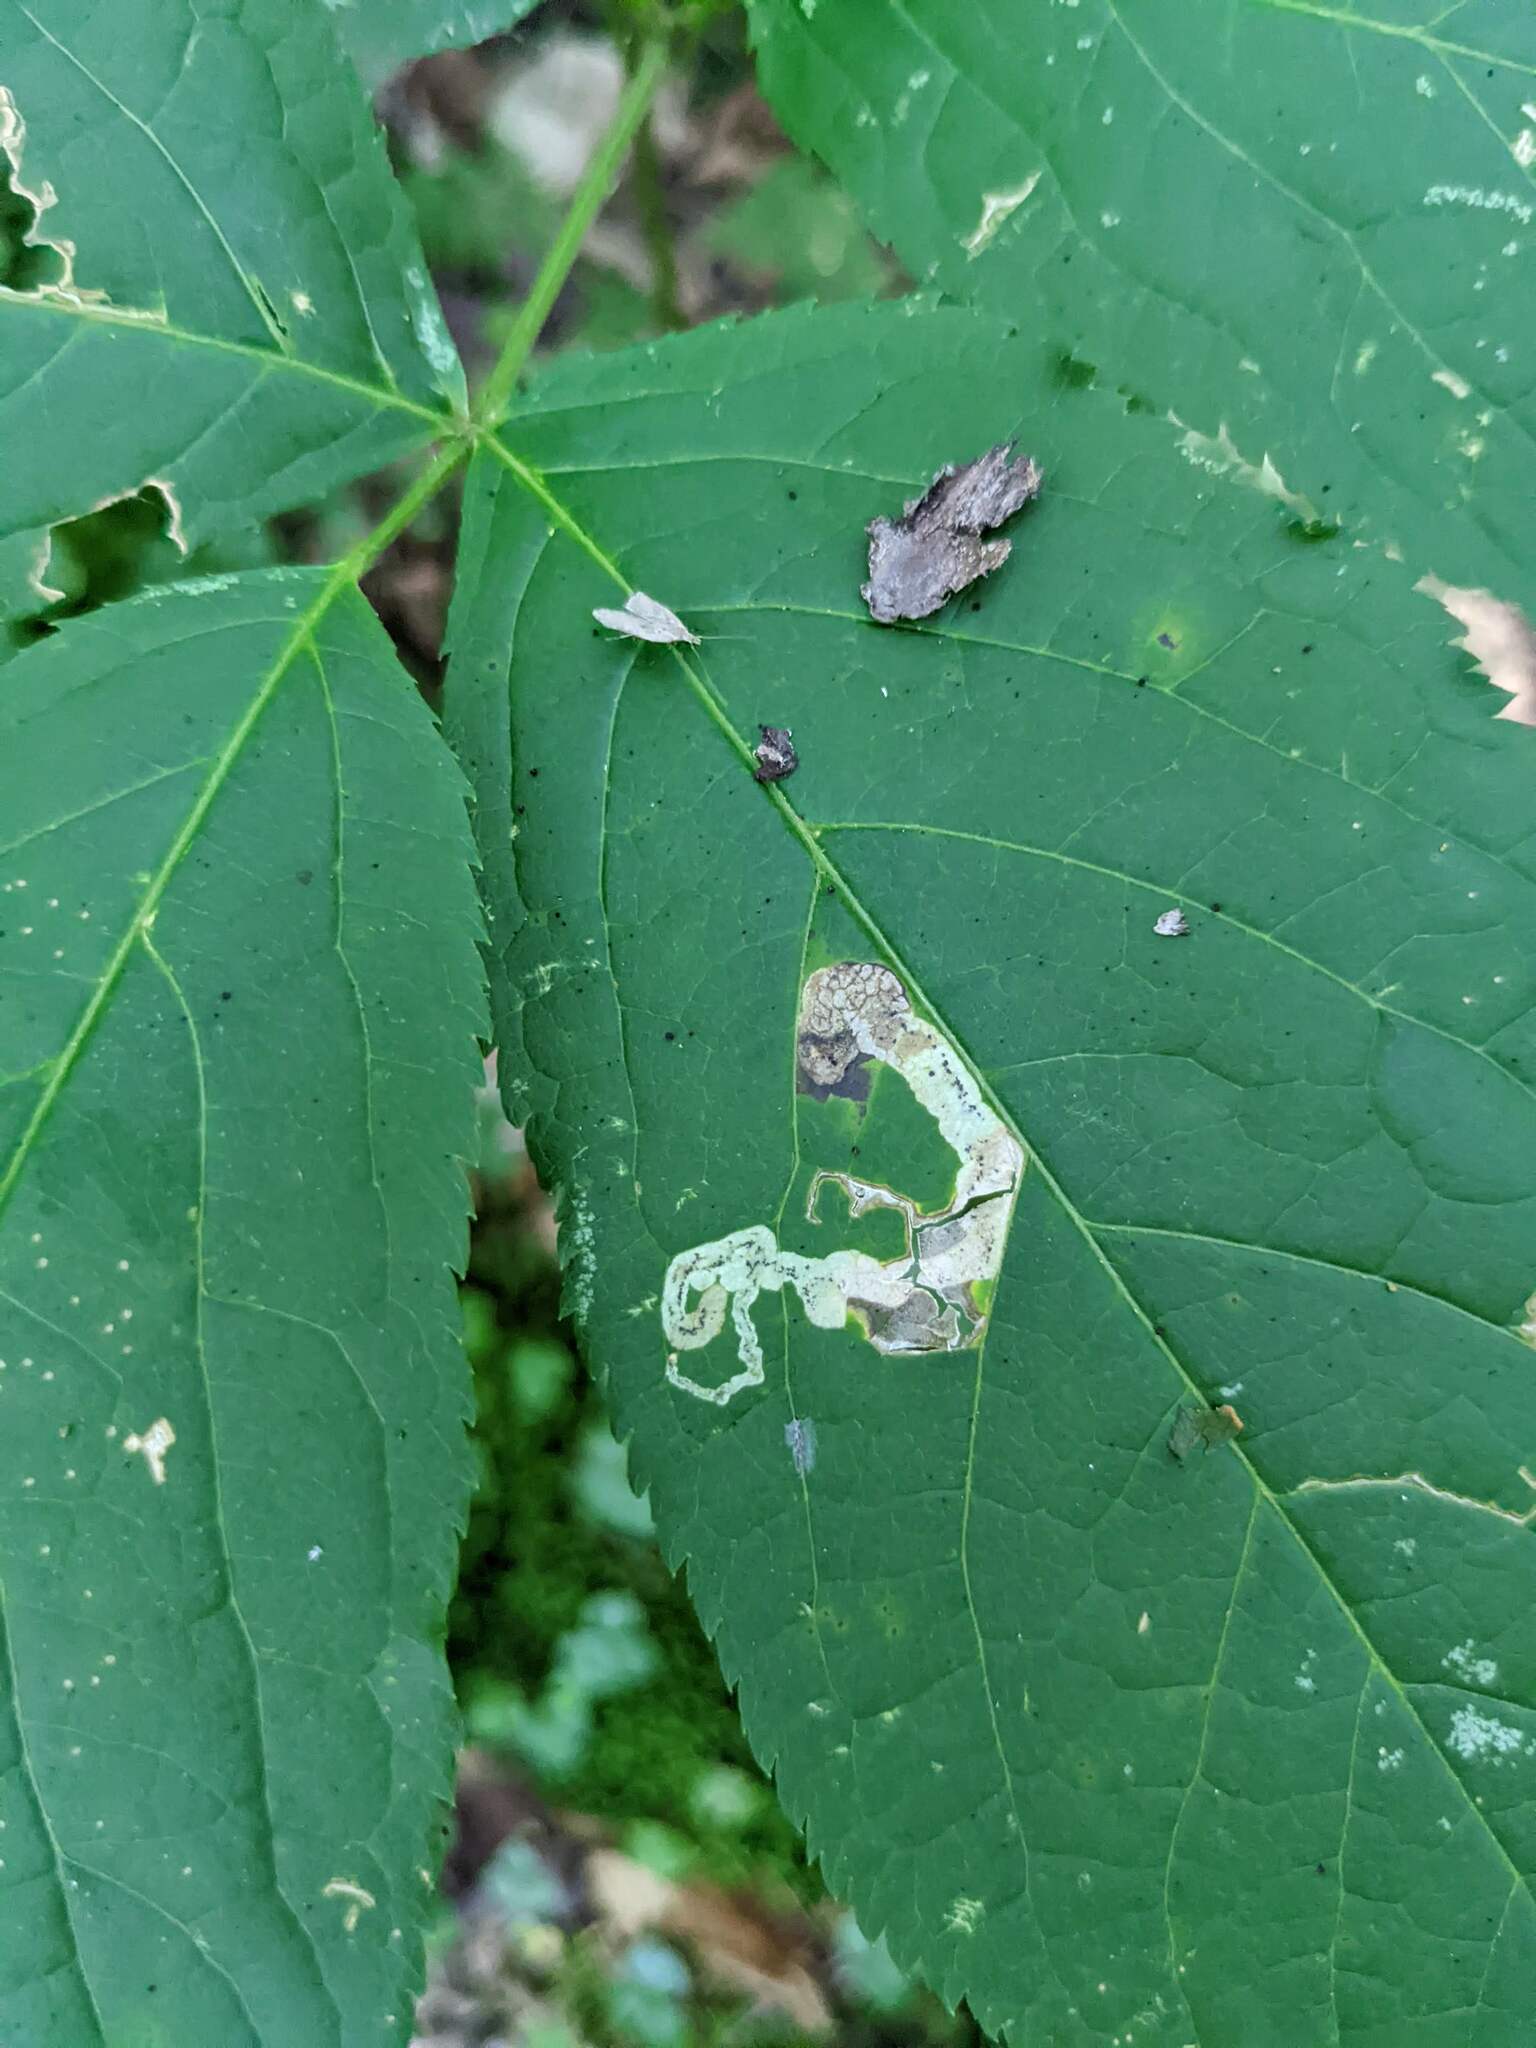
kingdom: Animalia
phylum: Arthropoda
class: Insecta
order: Diptera
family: Agromyzidae
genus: Phytomyza
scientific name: Phytomyza aralivora
